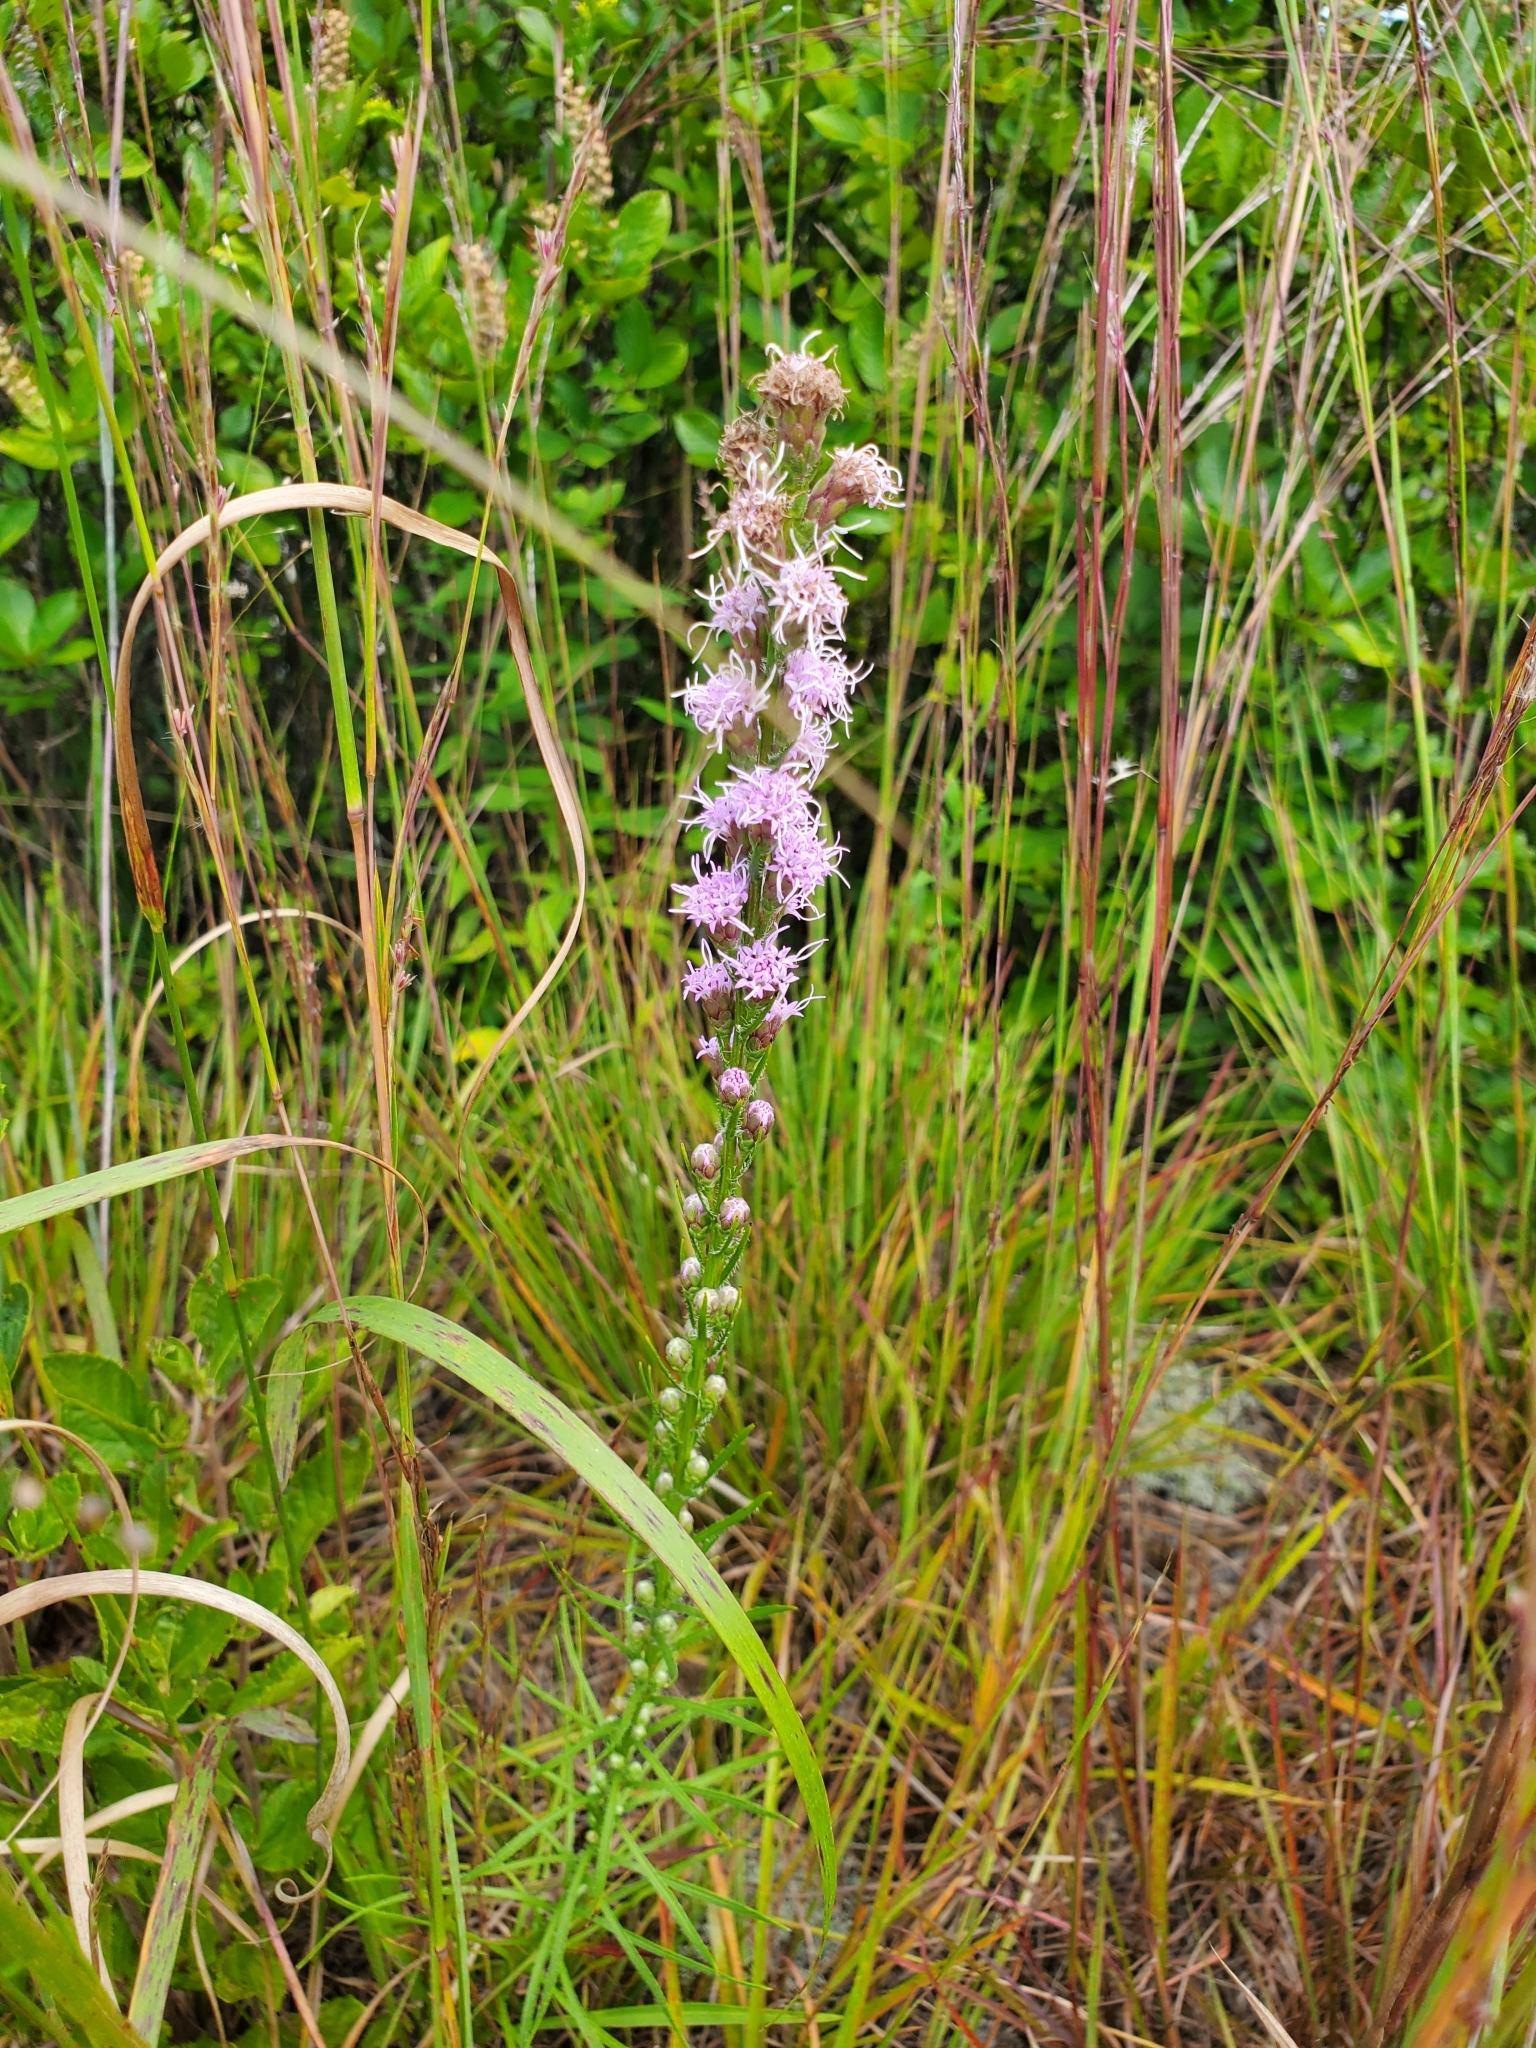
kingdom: Plantae
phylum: Tracheophyta
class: Magnoliopsida
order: Asterales
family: Asteraceae
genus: Liatris
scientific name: Liatris pilosa
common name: Grass-leaf gayfeather
